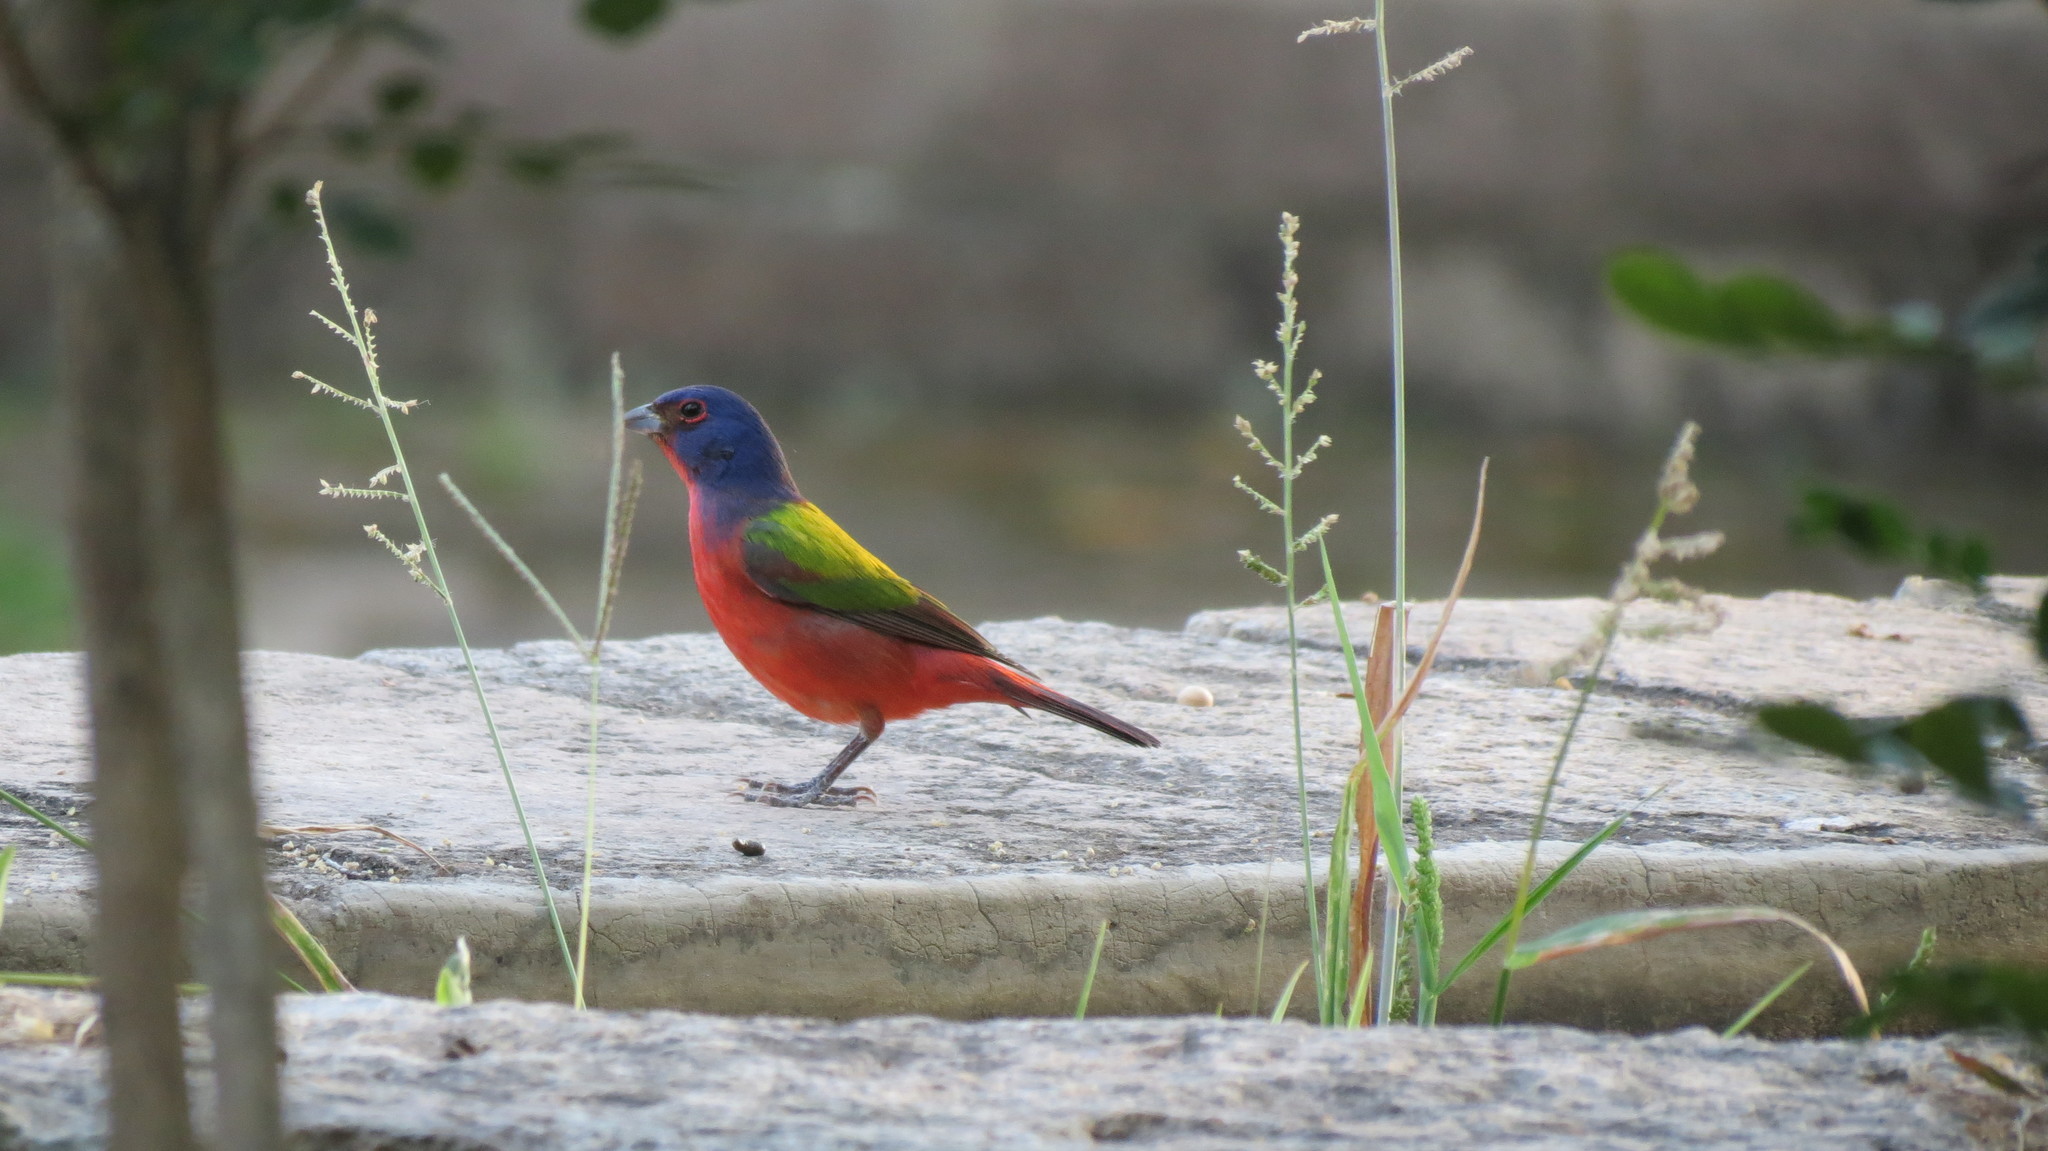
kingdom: Animalia
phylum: Chordata
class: Aves
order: Passeriformes
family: Cardinalidae
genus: Passerina
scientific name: Passerina ciris
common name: Painted bunting
